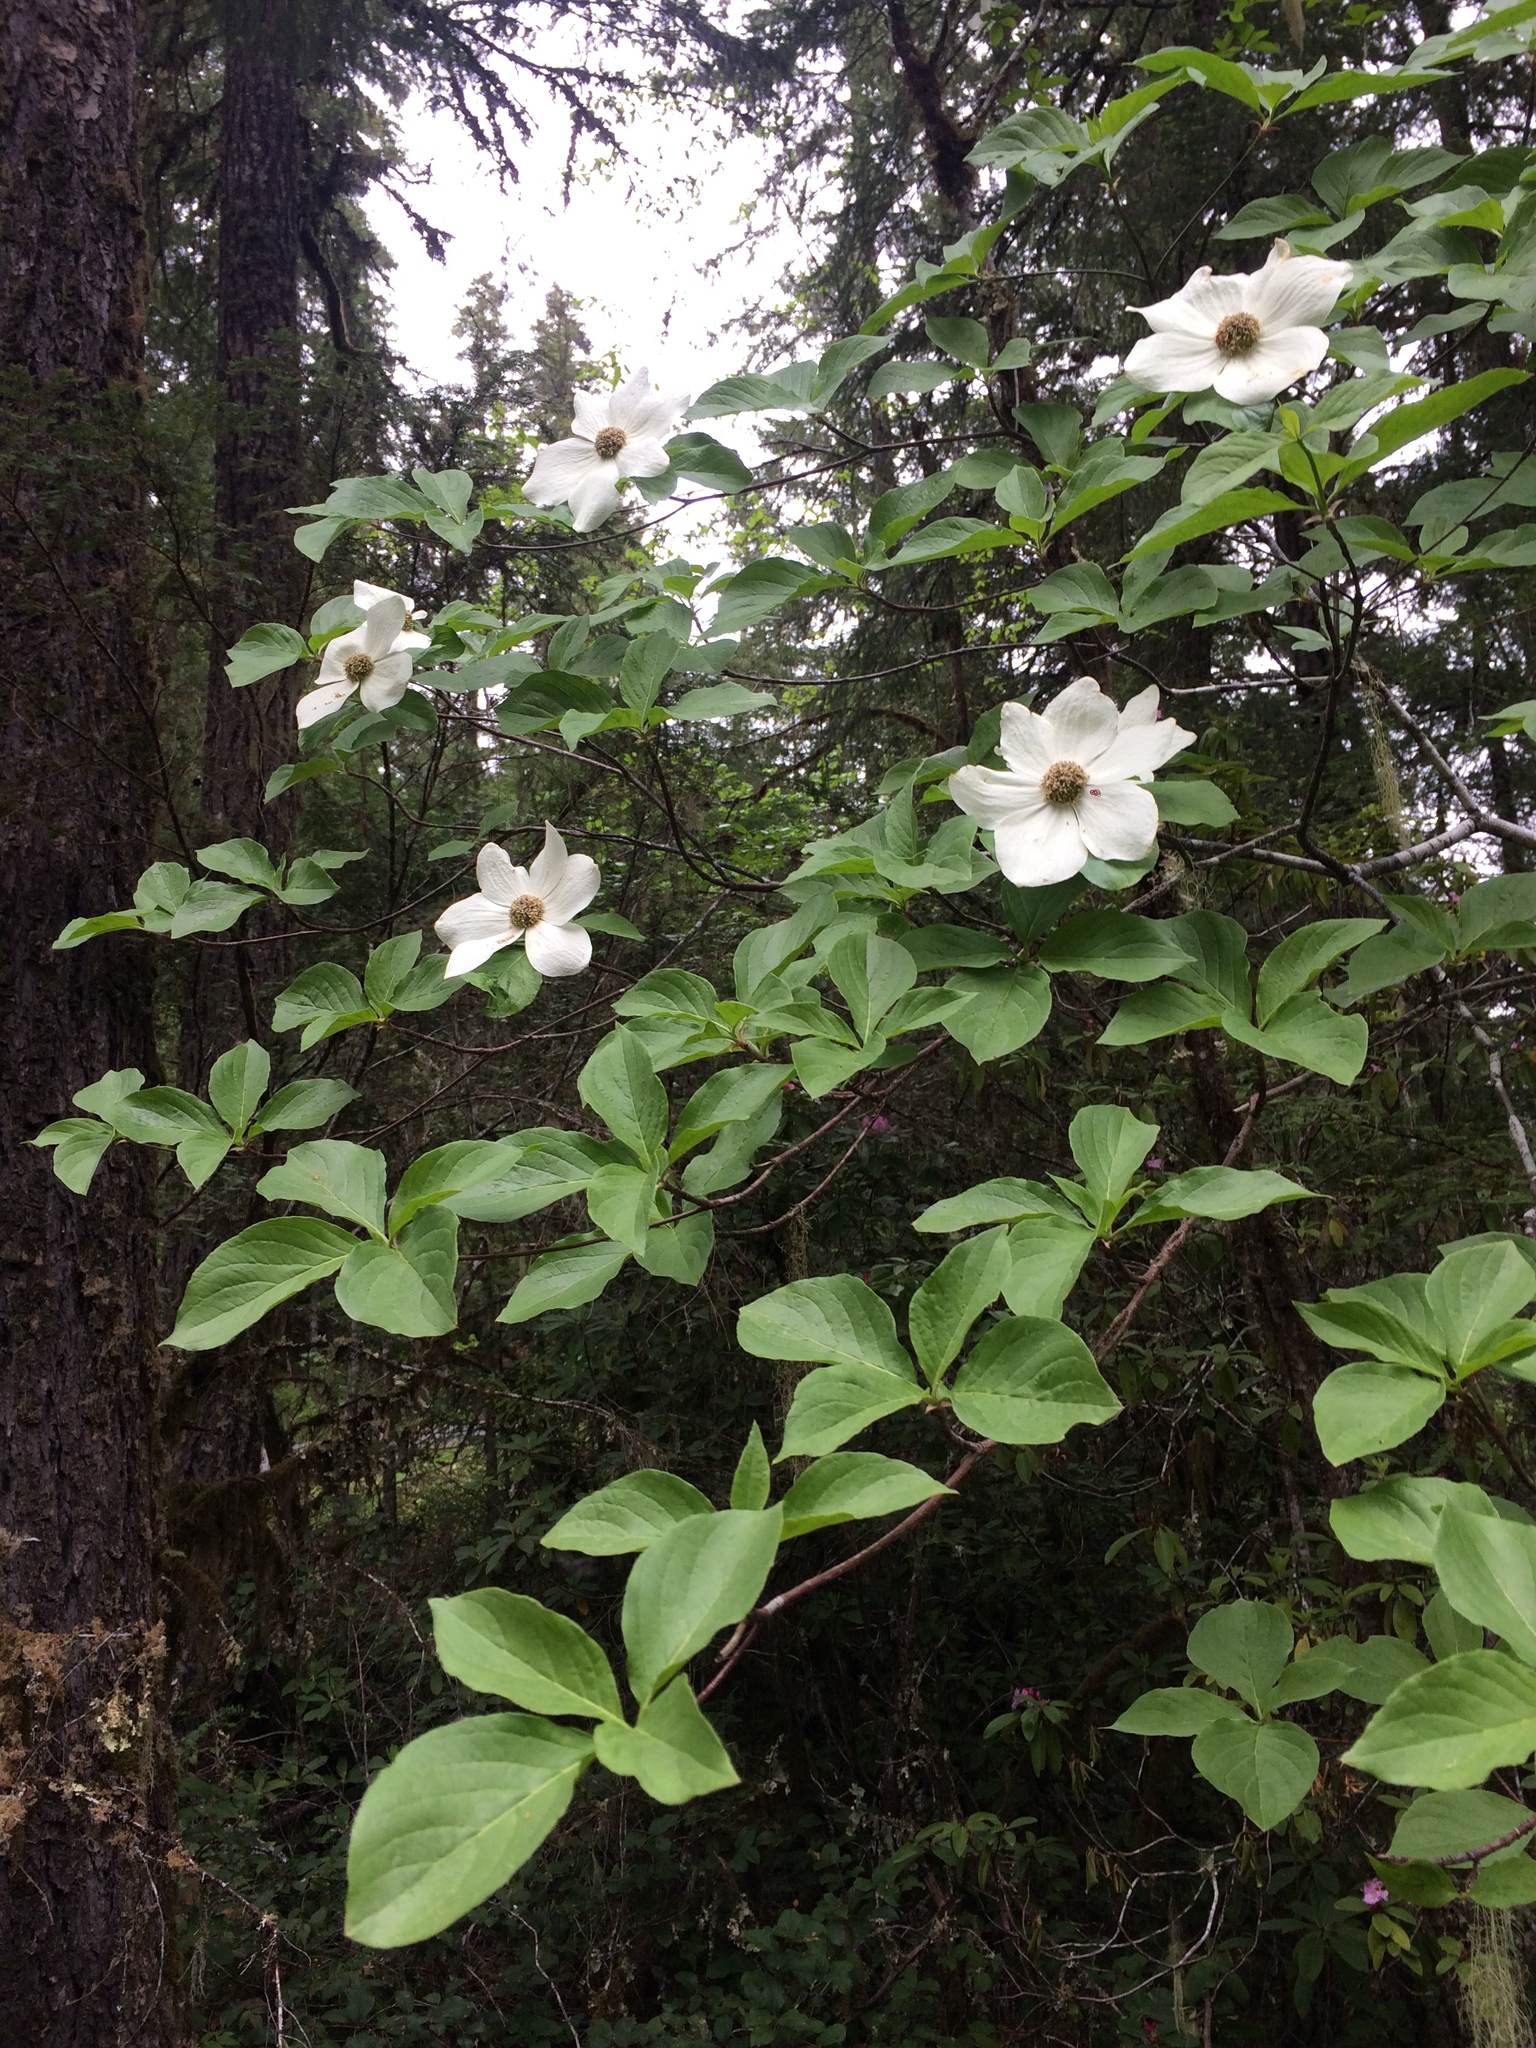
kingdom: Plantae
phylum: Tracheophyta
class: Magnoliopsida
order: Cornales
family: Cornaceae
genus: Cornus
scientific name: Cornus nuttallii
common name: Pacific dogwood
